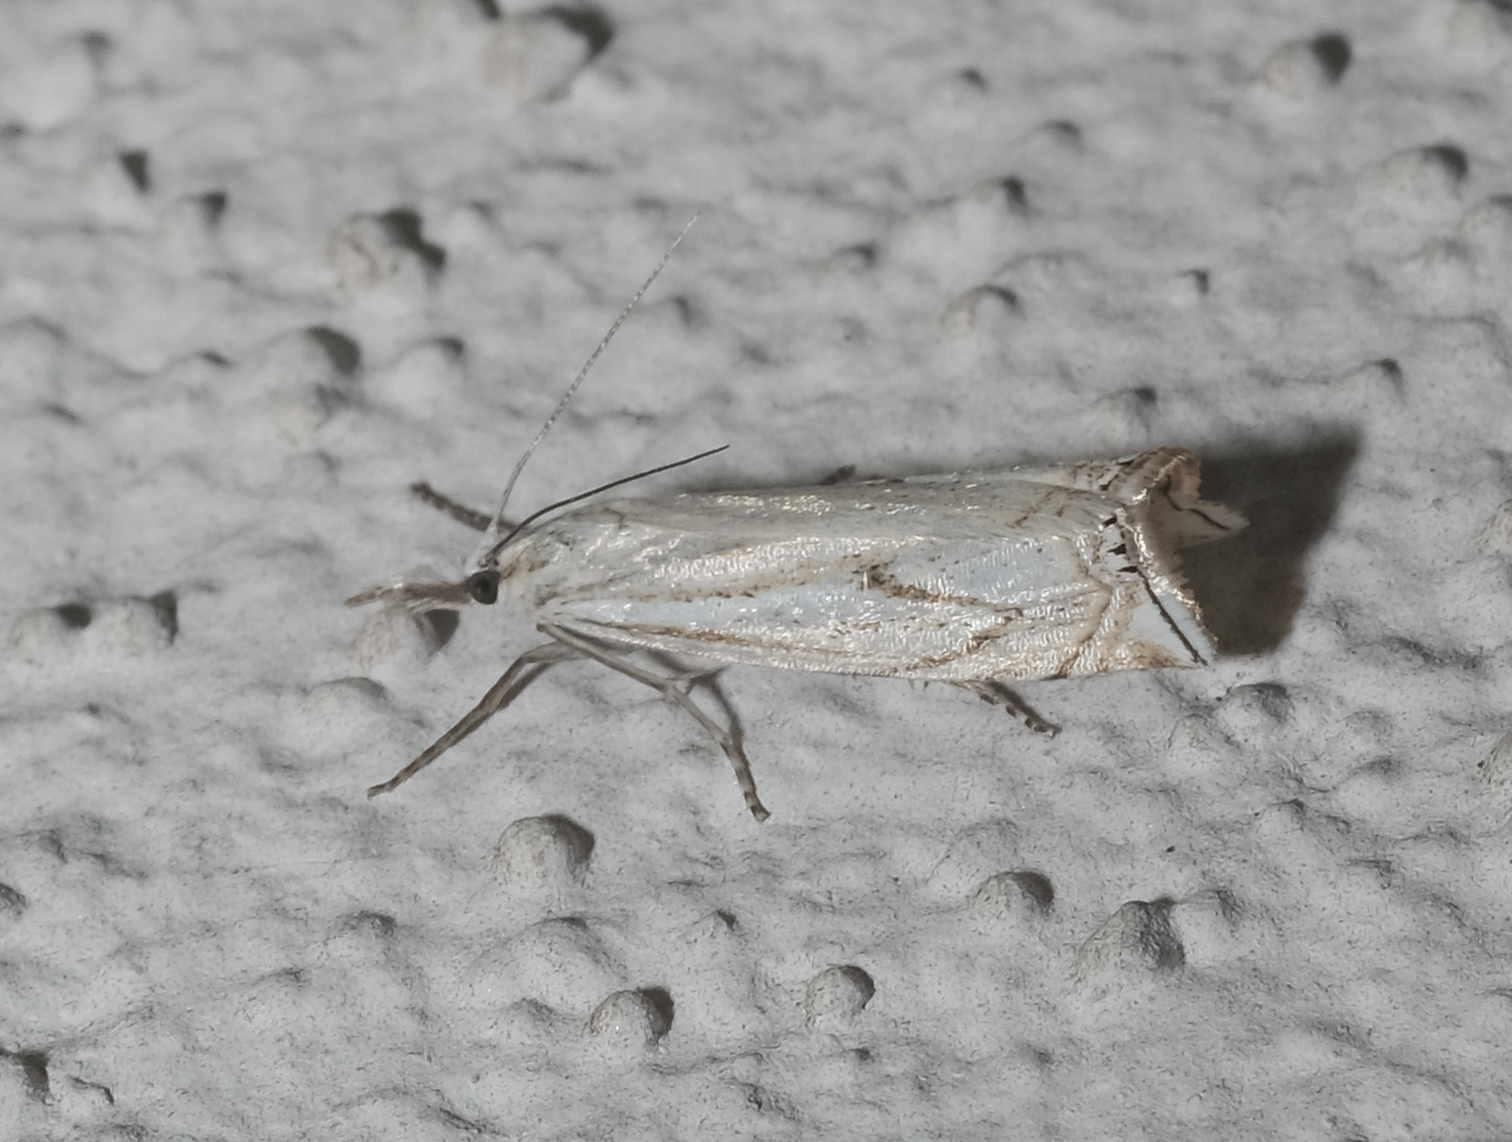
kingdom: Animalia
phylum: Arthropoda
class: Insecta
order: Lepidoptera
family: Crambidae
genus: Crambus
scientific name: Crambus nemorella
